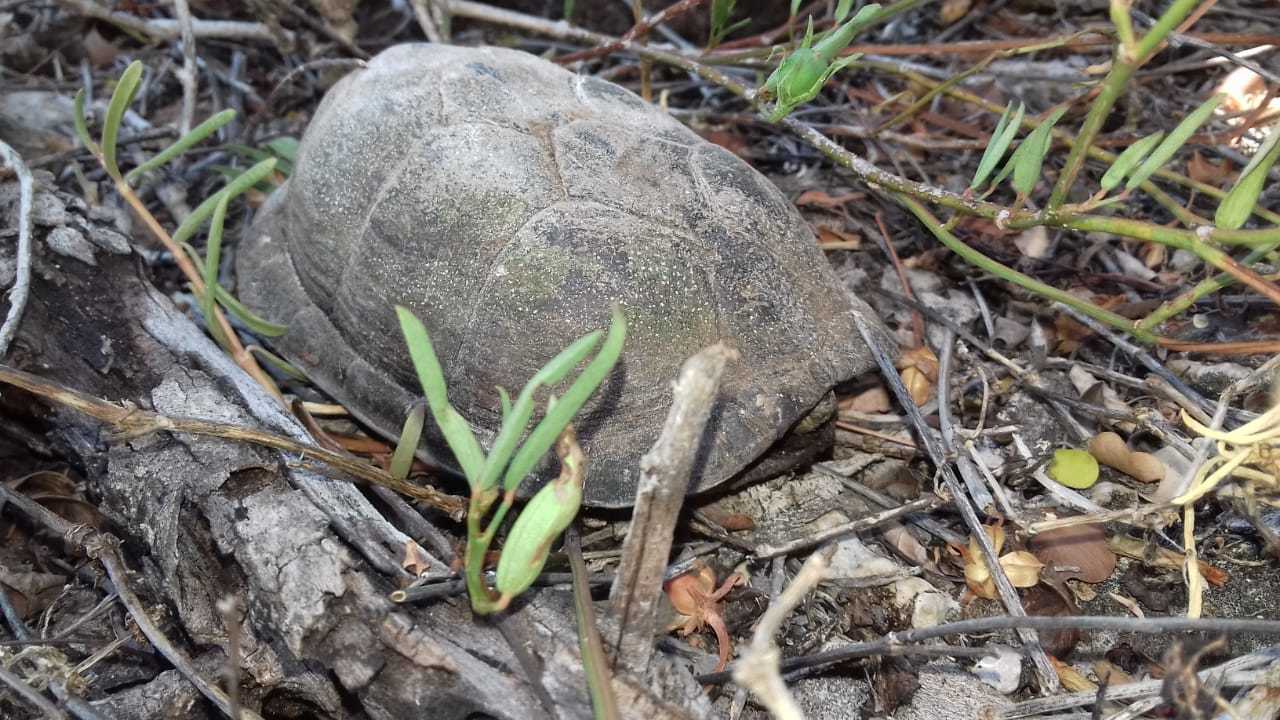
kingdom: Animalia
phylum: Chordata
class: Testudines
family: Kinosternidae
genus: Kinosternon
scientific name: Kinosternon creaseri
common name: Creaser's mud turtle
